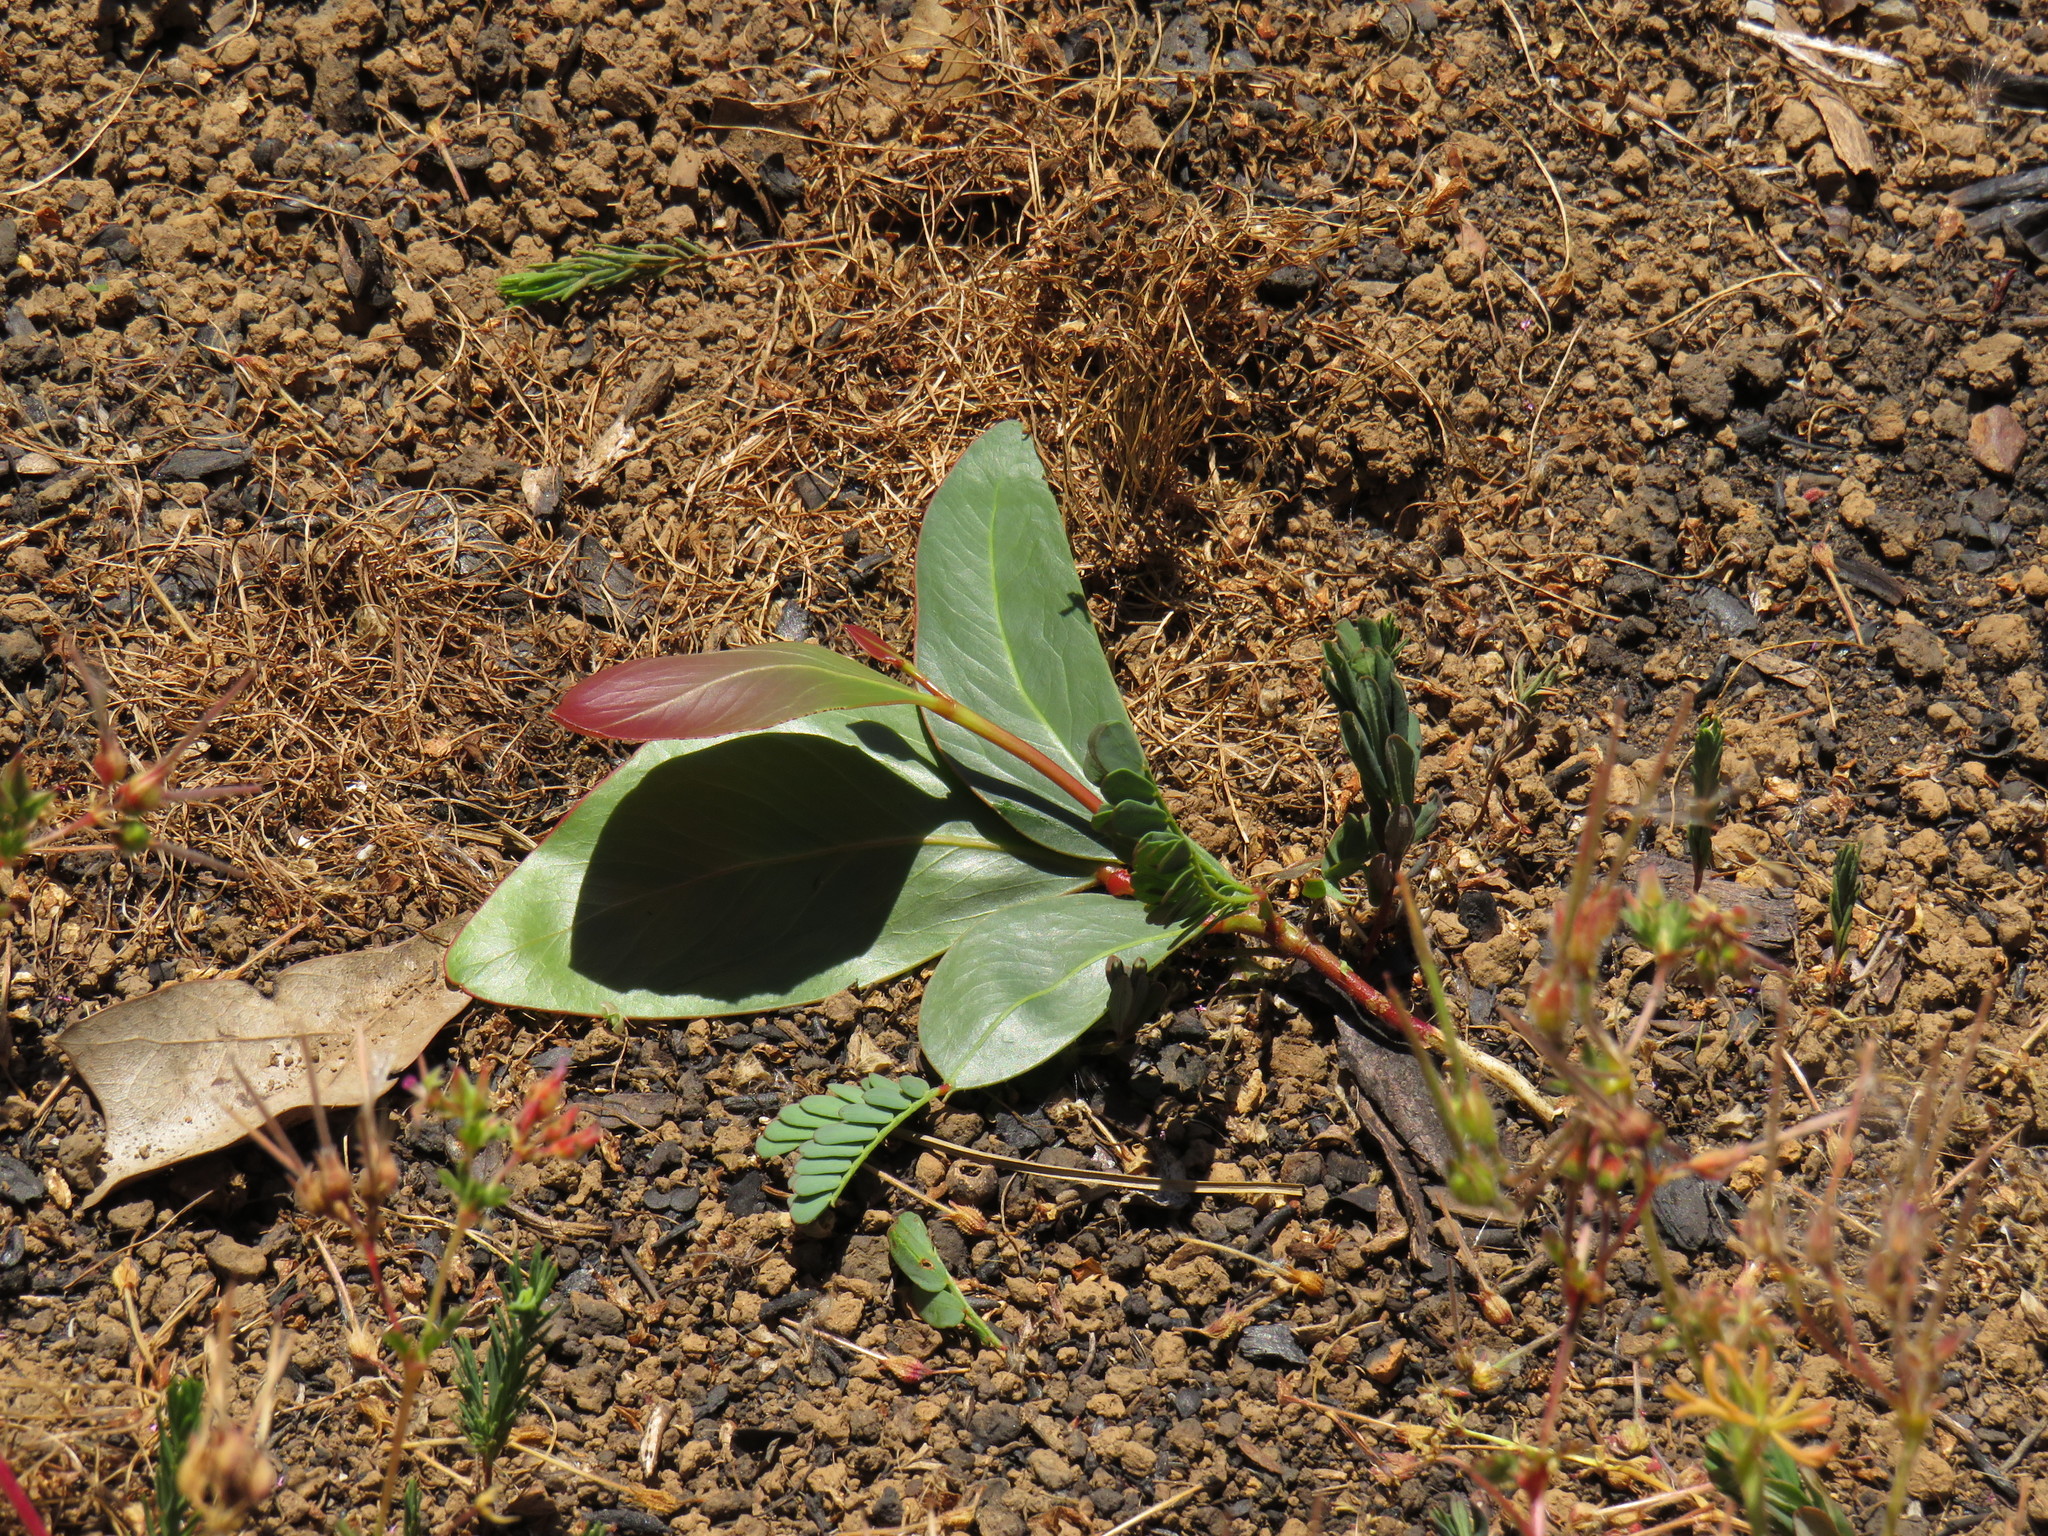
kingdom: Plantae
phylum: Tracheophyta
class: Magnoliopsida
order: Fabales
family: Fabaceae
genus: Acacia
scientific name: Acacia pycnantha
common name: Golden wattle
